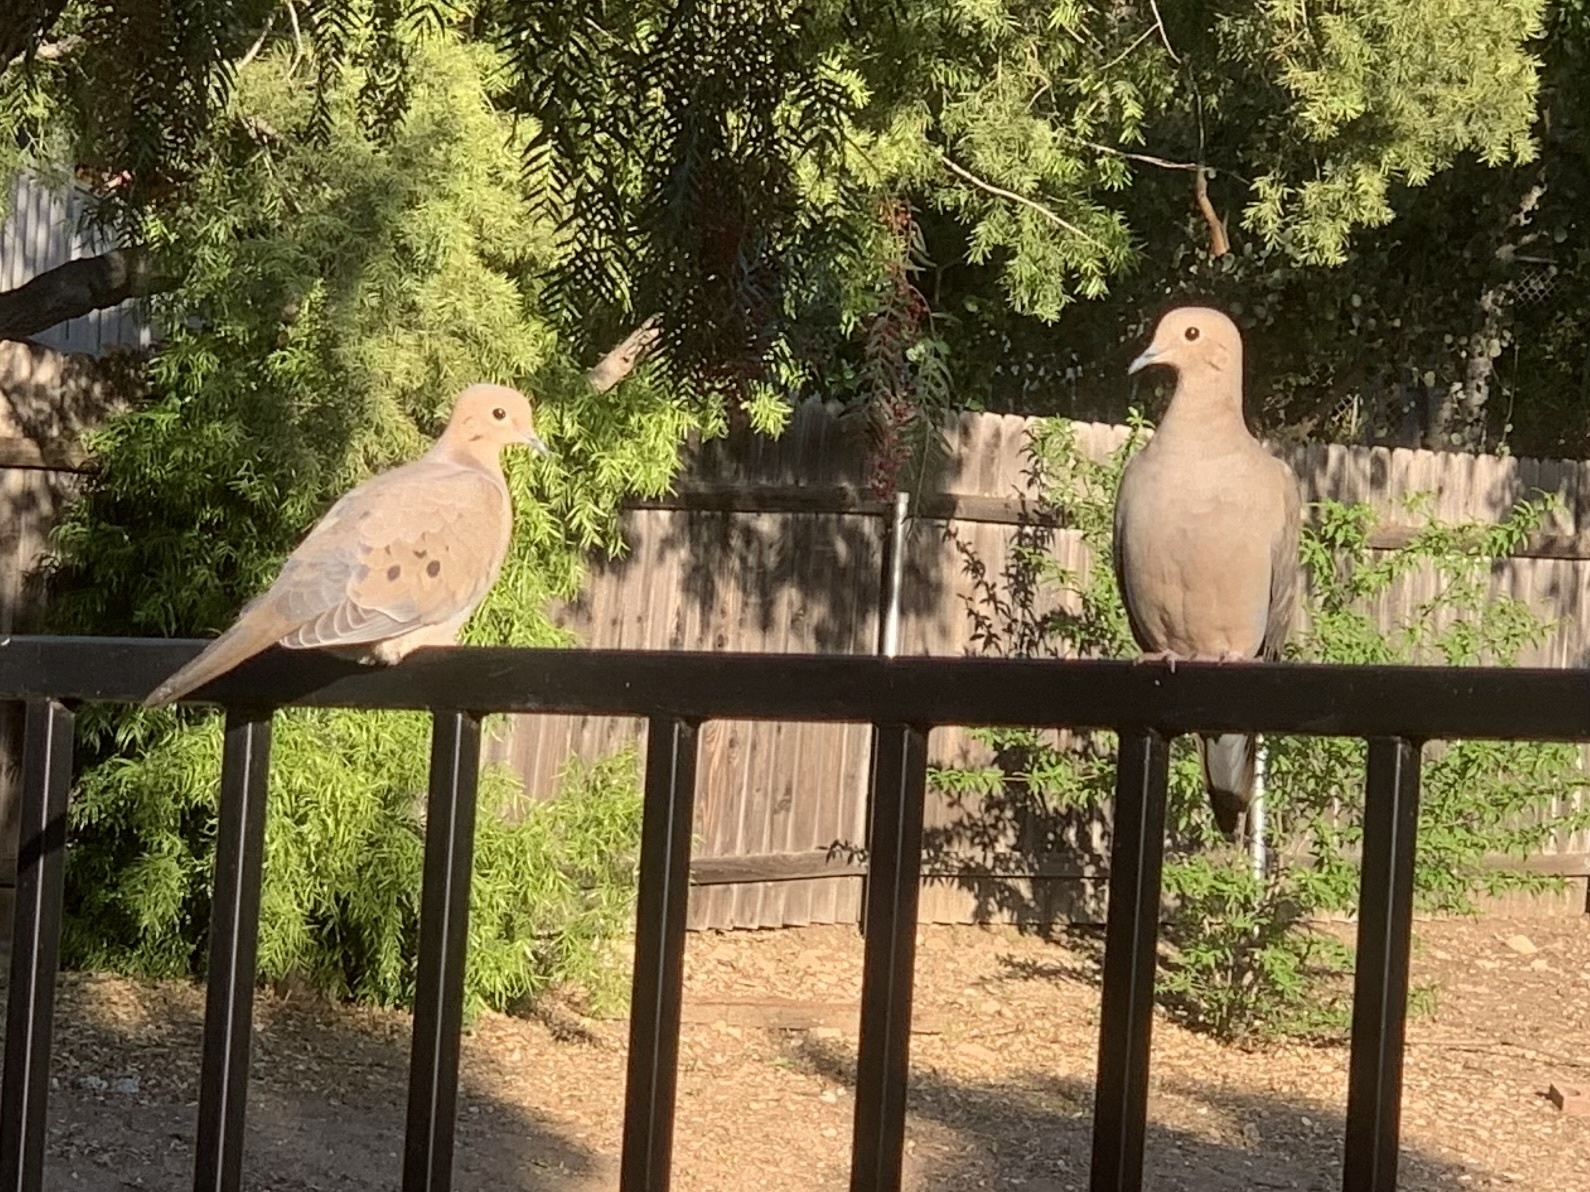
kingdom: Animalia
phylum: Chordata
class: Aves
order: Columbiformes
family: Columbidae
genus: Zenaida
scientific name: Zenaida macroura
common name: Mourning dove
